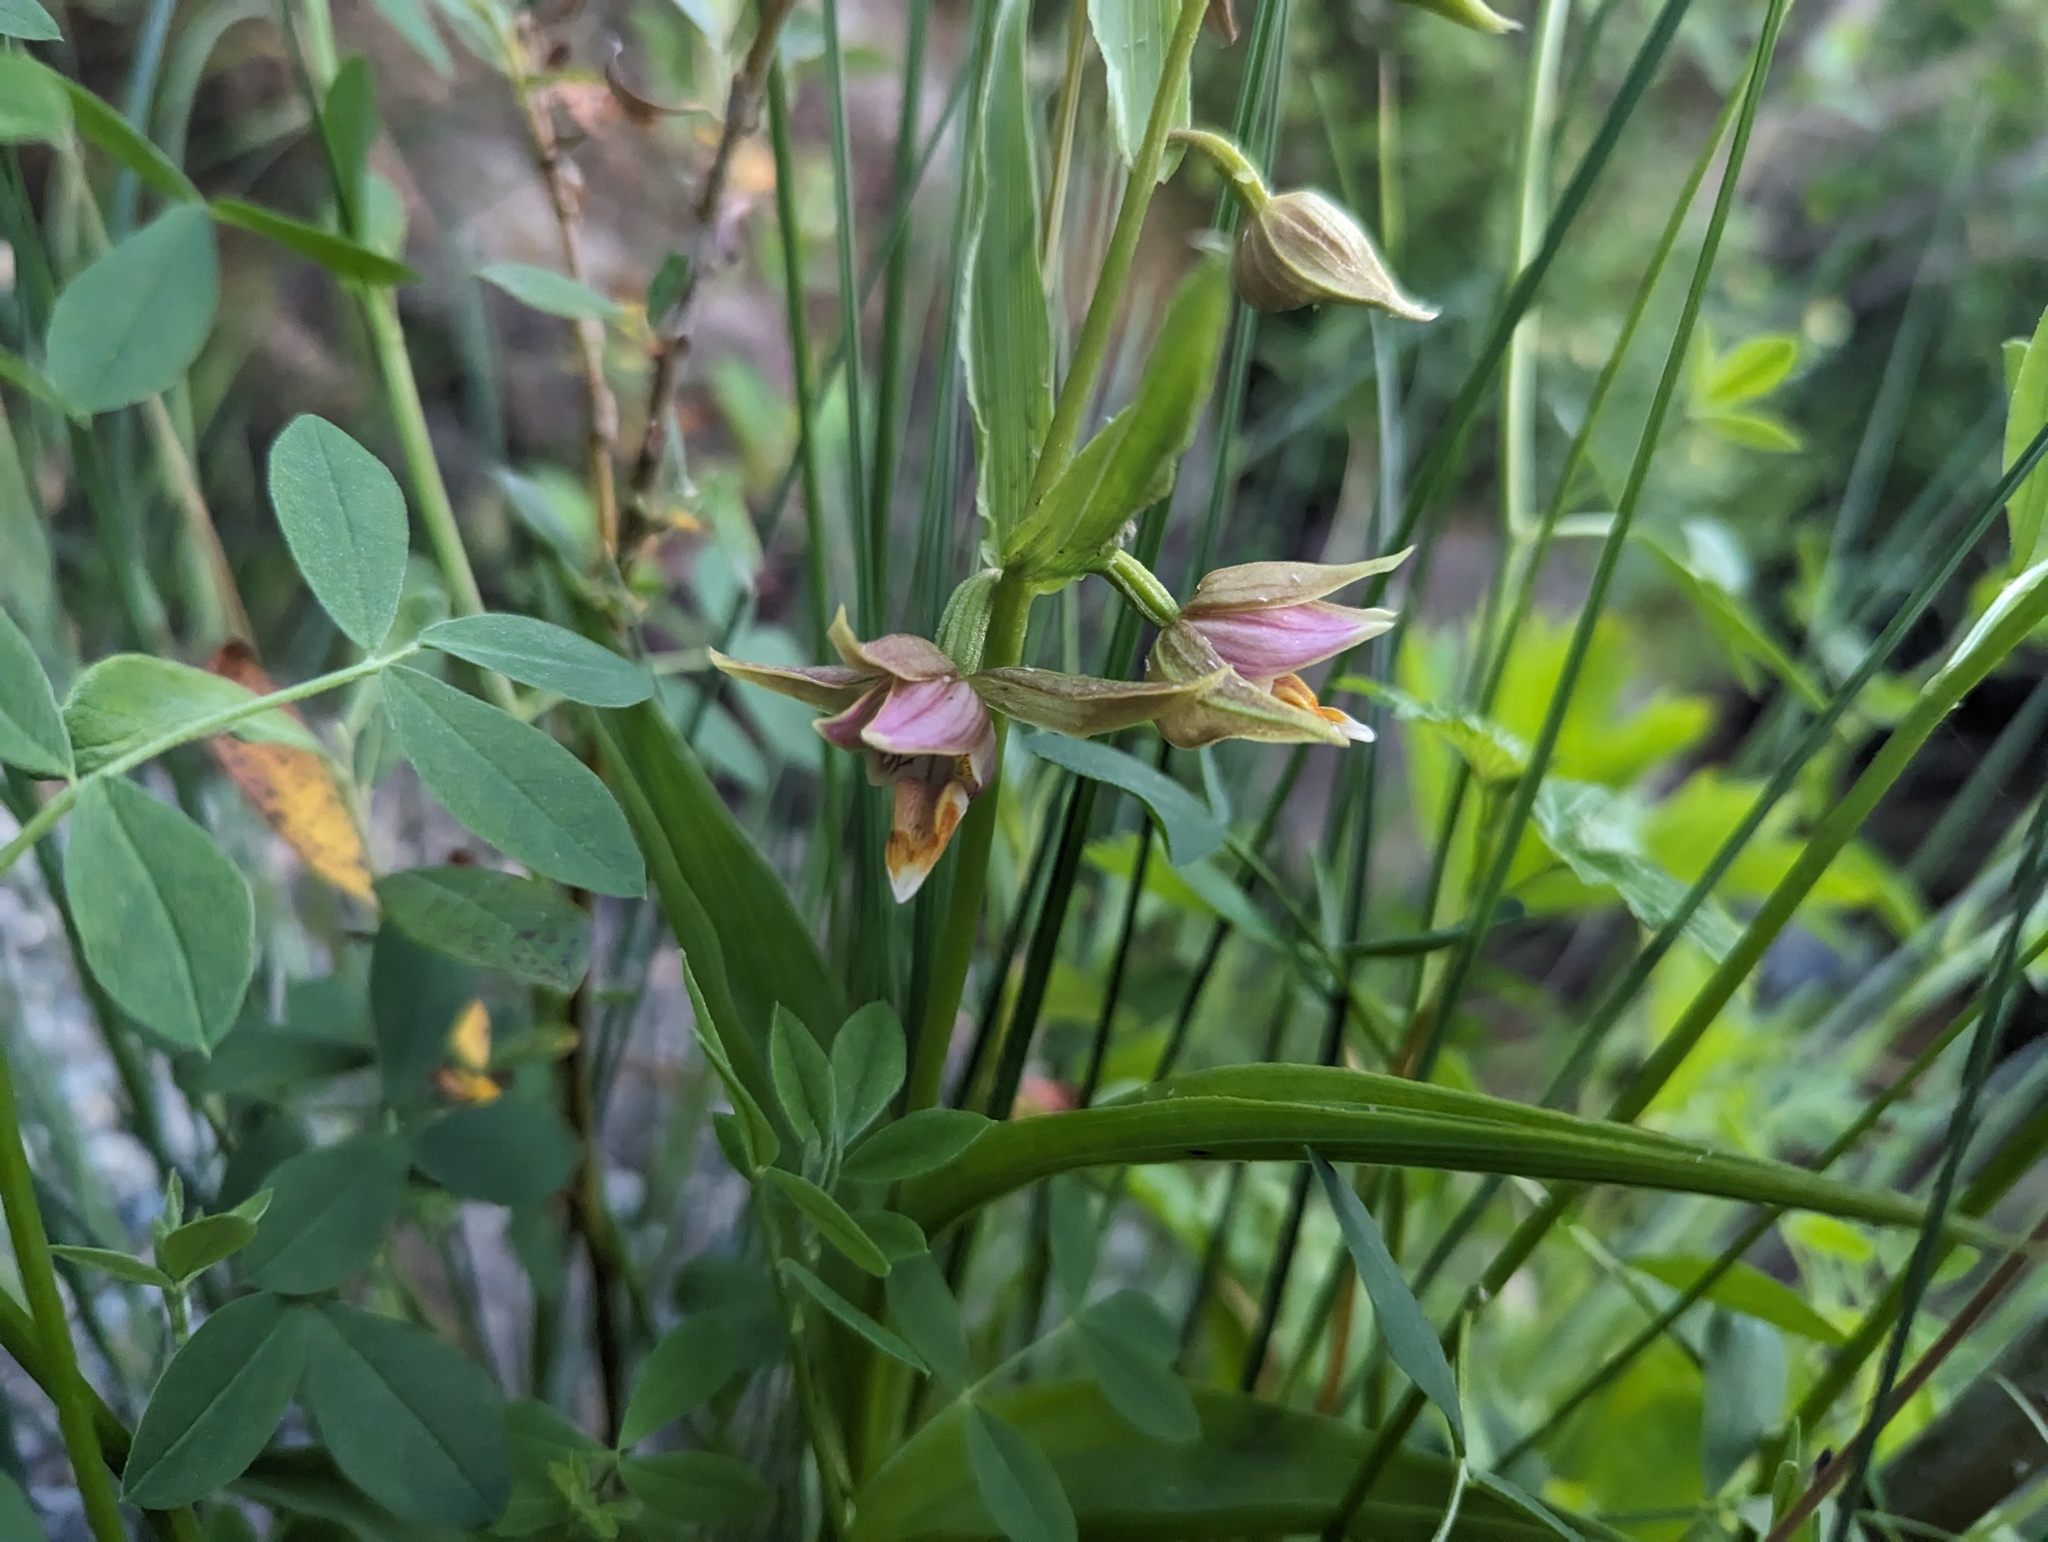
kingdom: Plantae
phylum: Tracheophyta
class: Liliopsida
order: Asparagales
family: Orchidaceae
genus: Epipactis
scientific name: Epipactis gigantea
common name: Chatterbox
